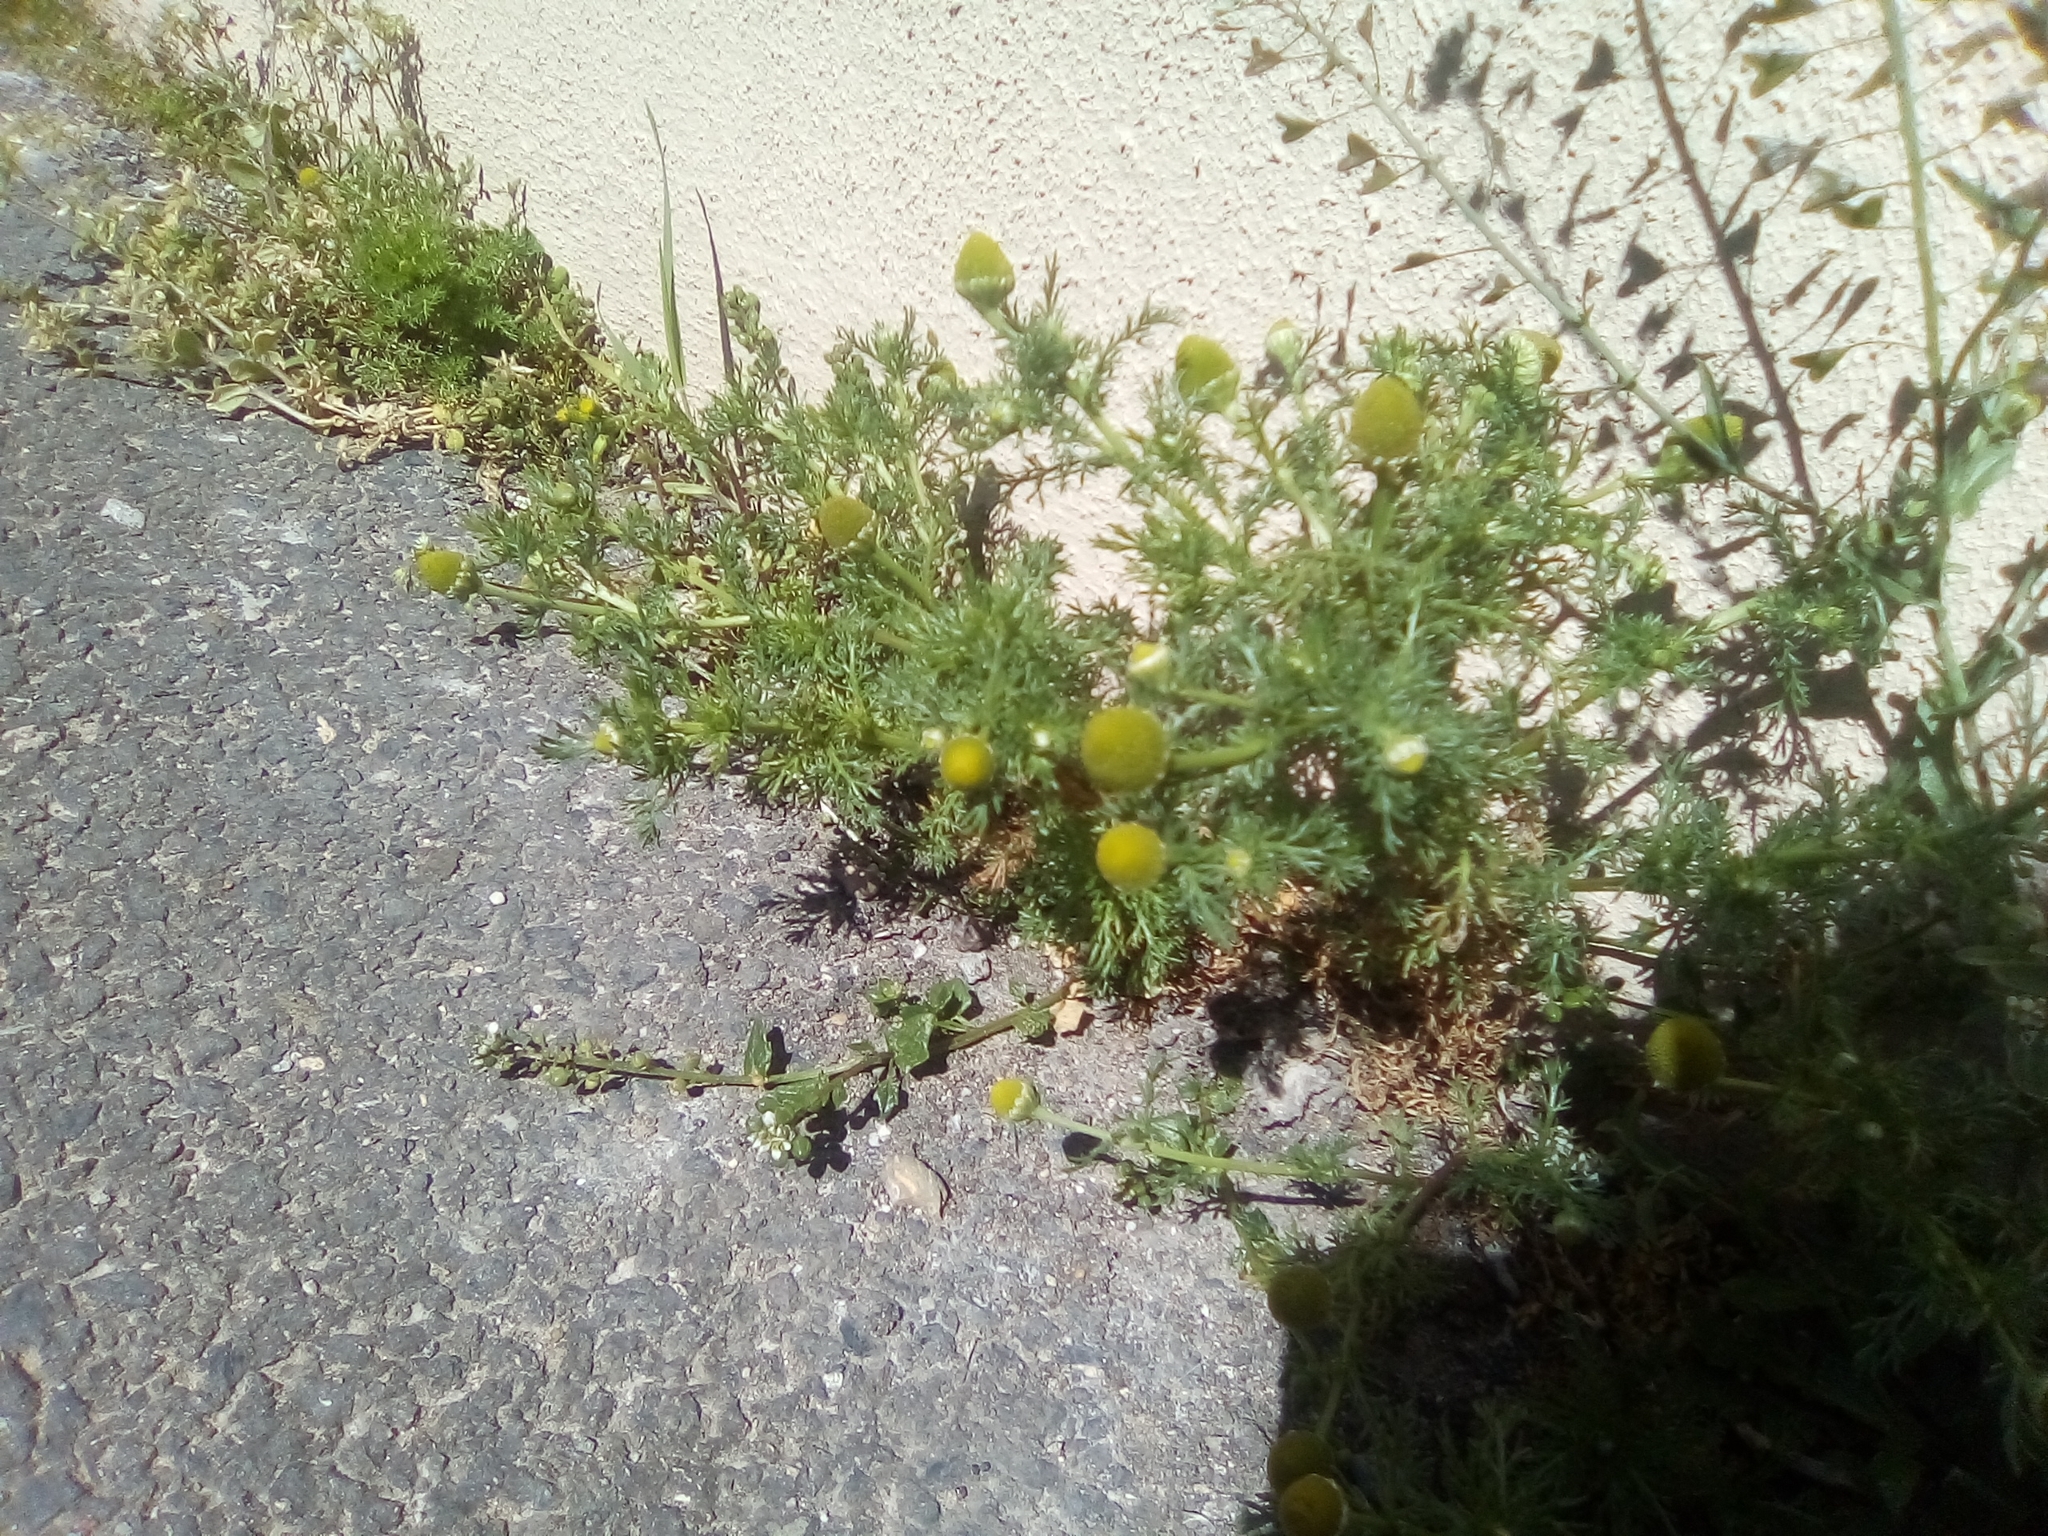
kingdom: Plantae
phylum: Tracheophyta
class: Magnoliopsida
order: Asterales
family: Asteraceae
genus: Matricaria
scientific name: Matricaria discoidea
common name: Disc mayweed
